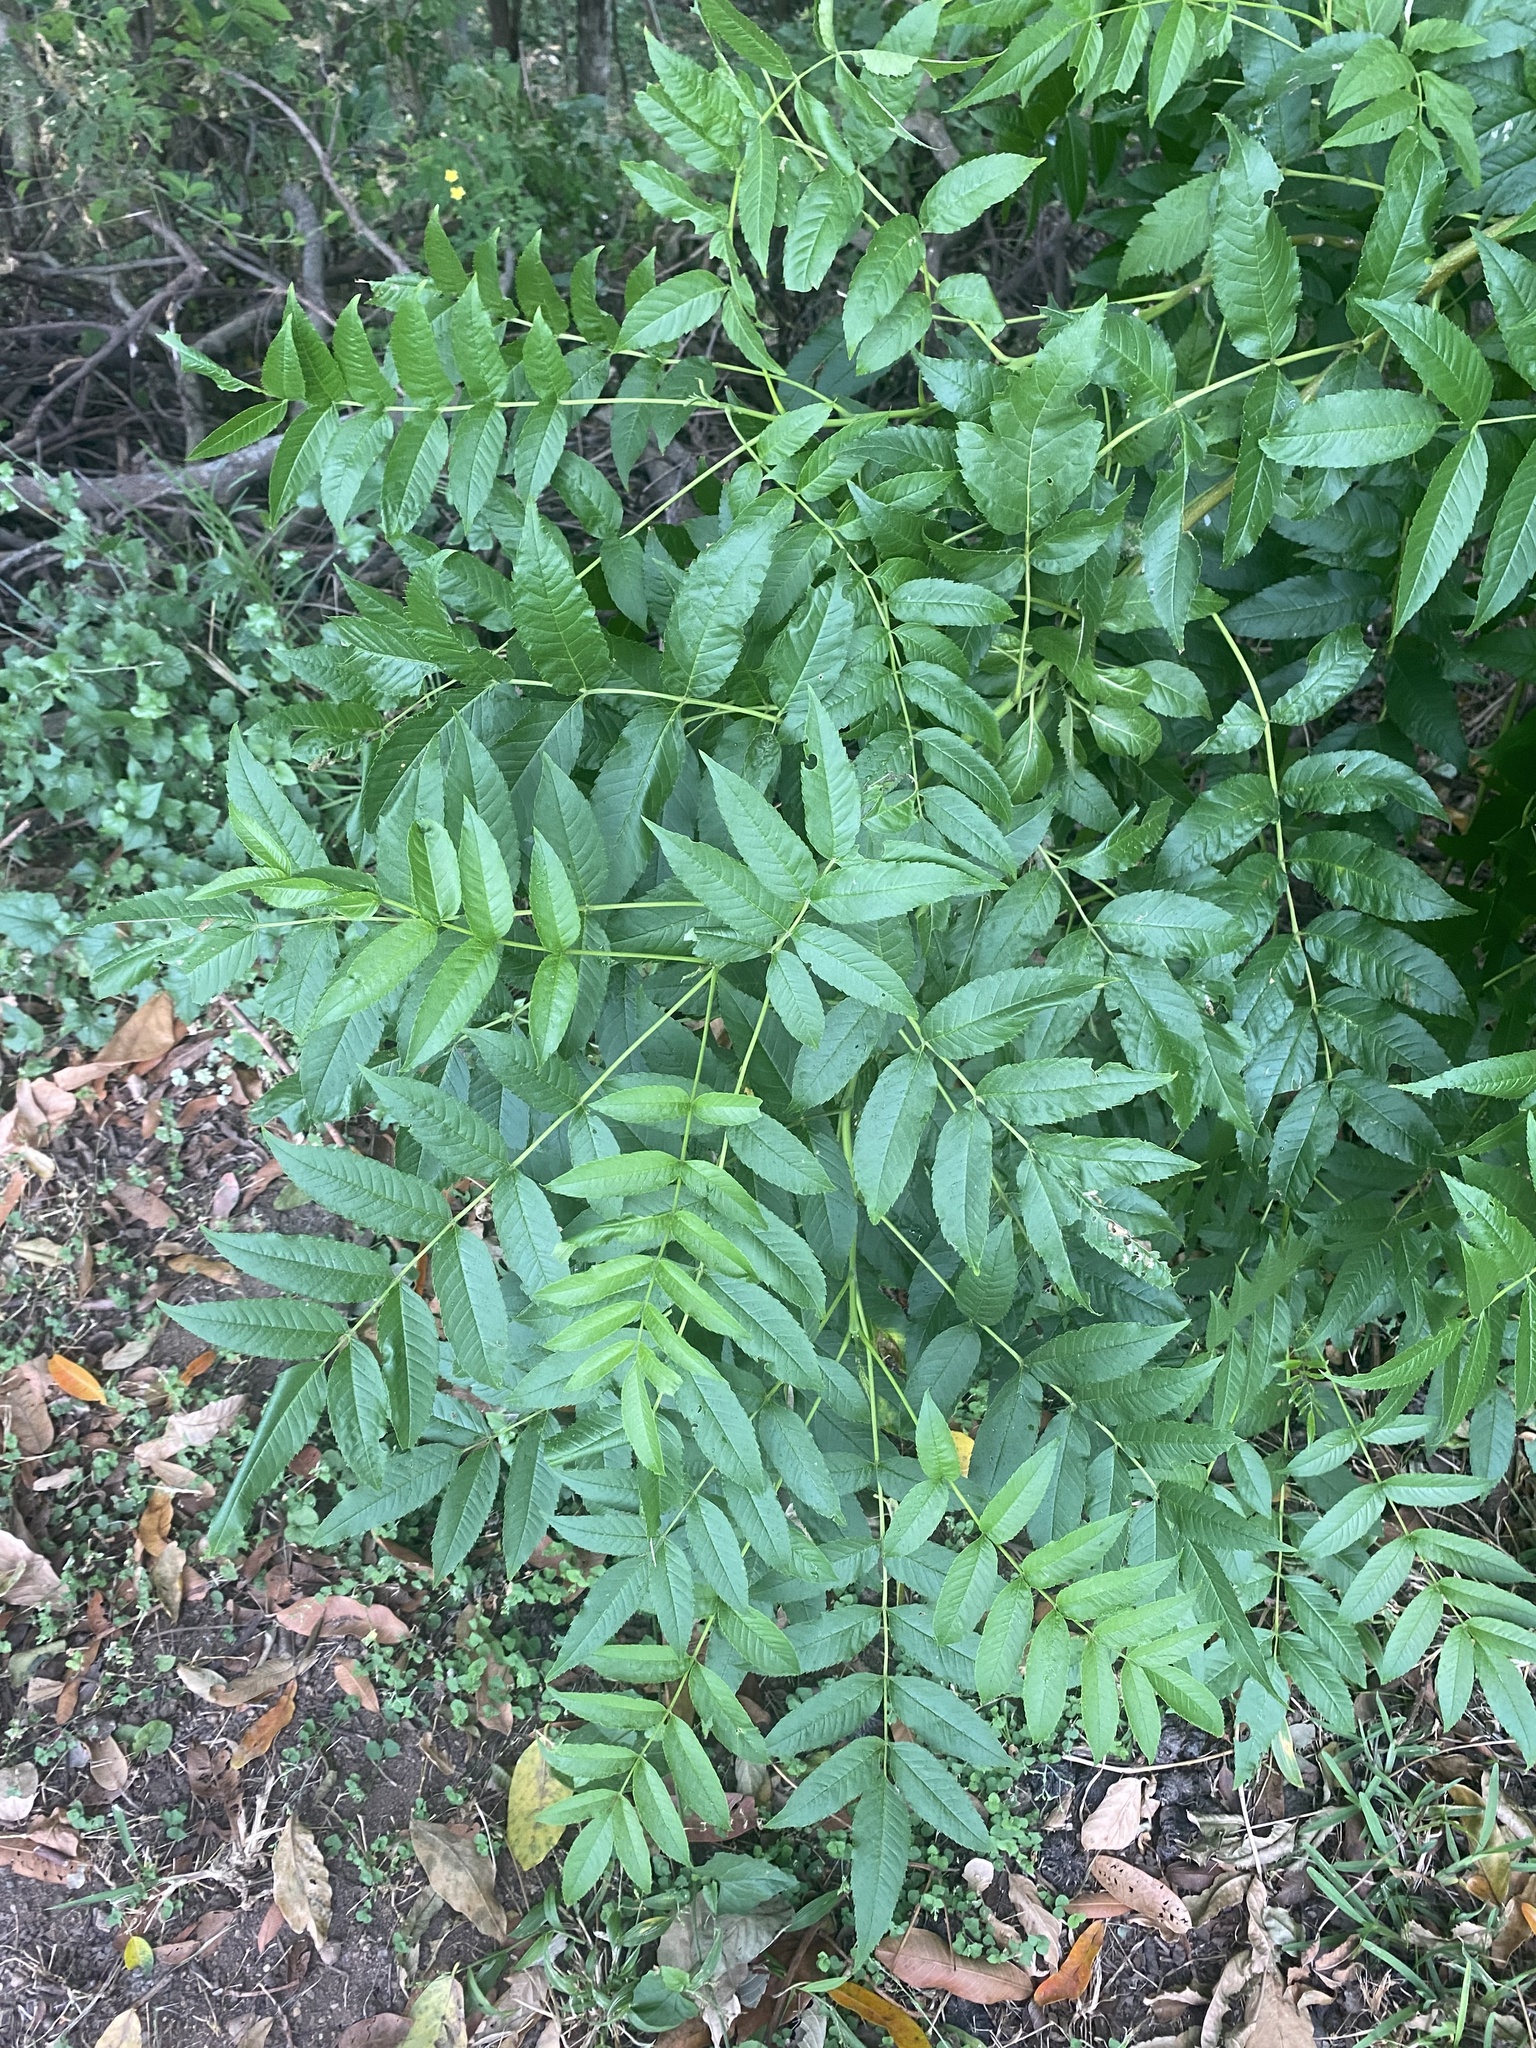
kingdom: Plantae
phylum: Tracheophyta
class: Magnoliopsida
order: Lamiales
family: Bignoniaceae
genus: Tecoma
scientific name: Tecoma stans
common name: Yellow trumpetbush
